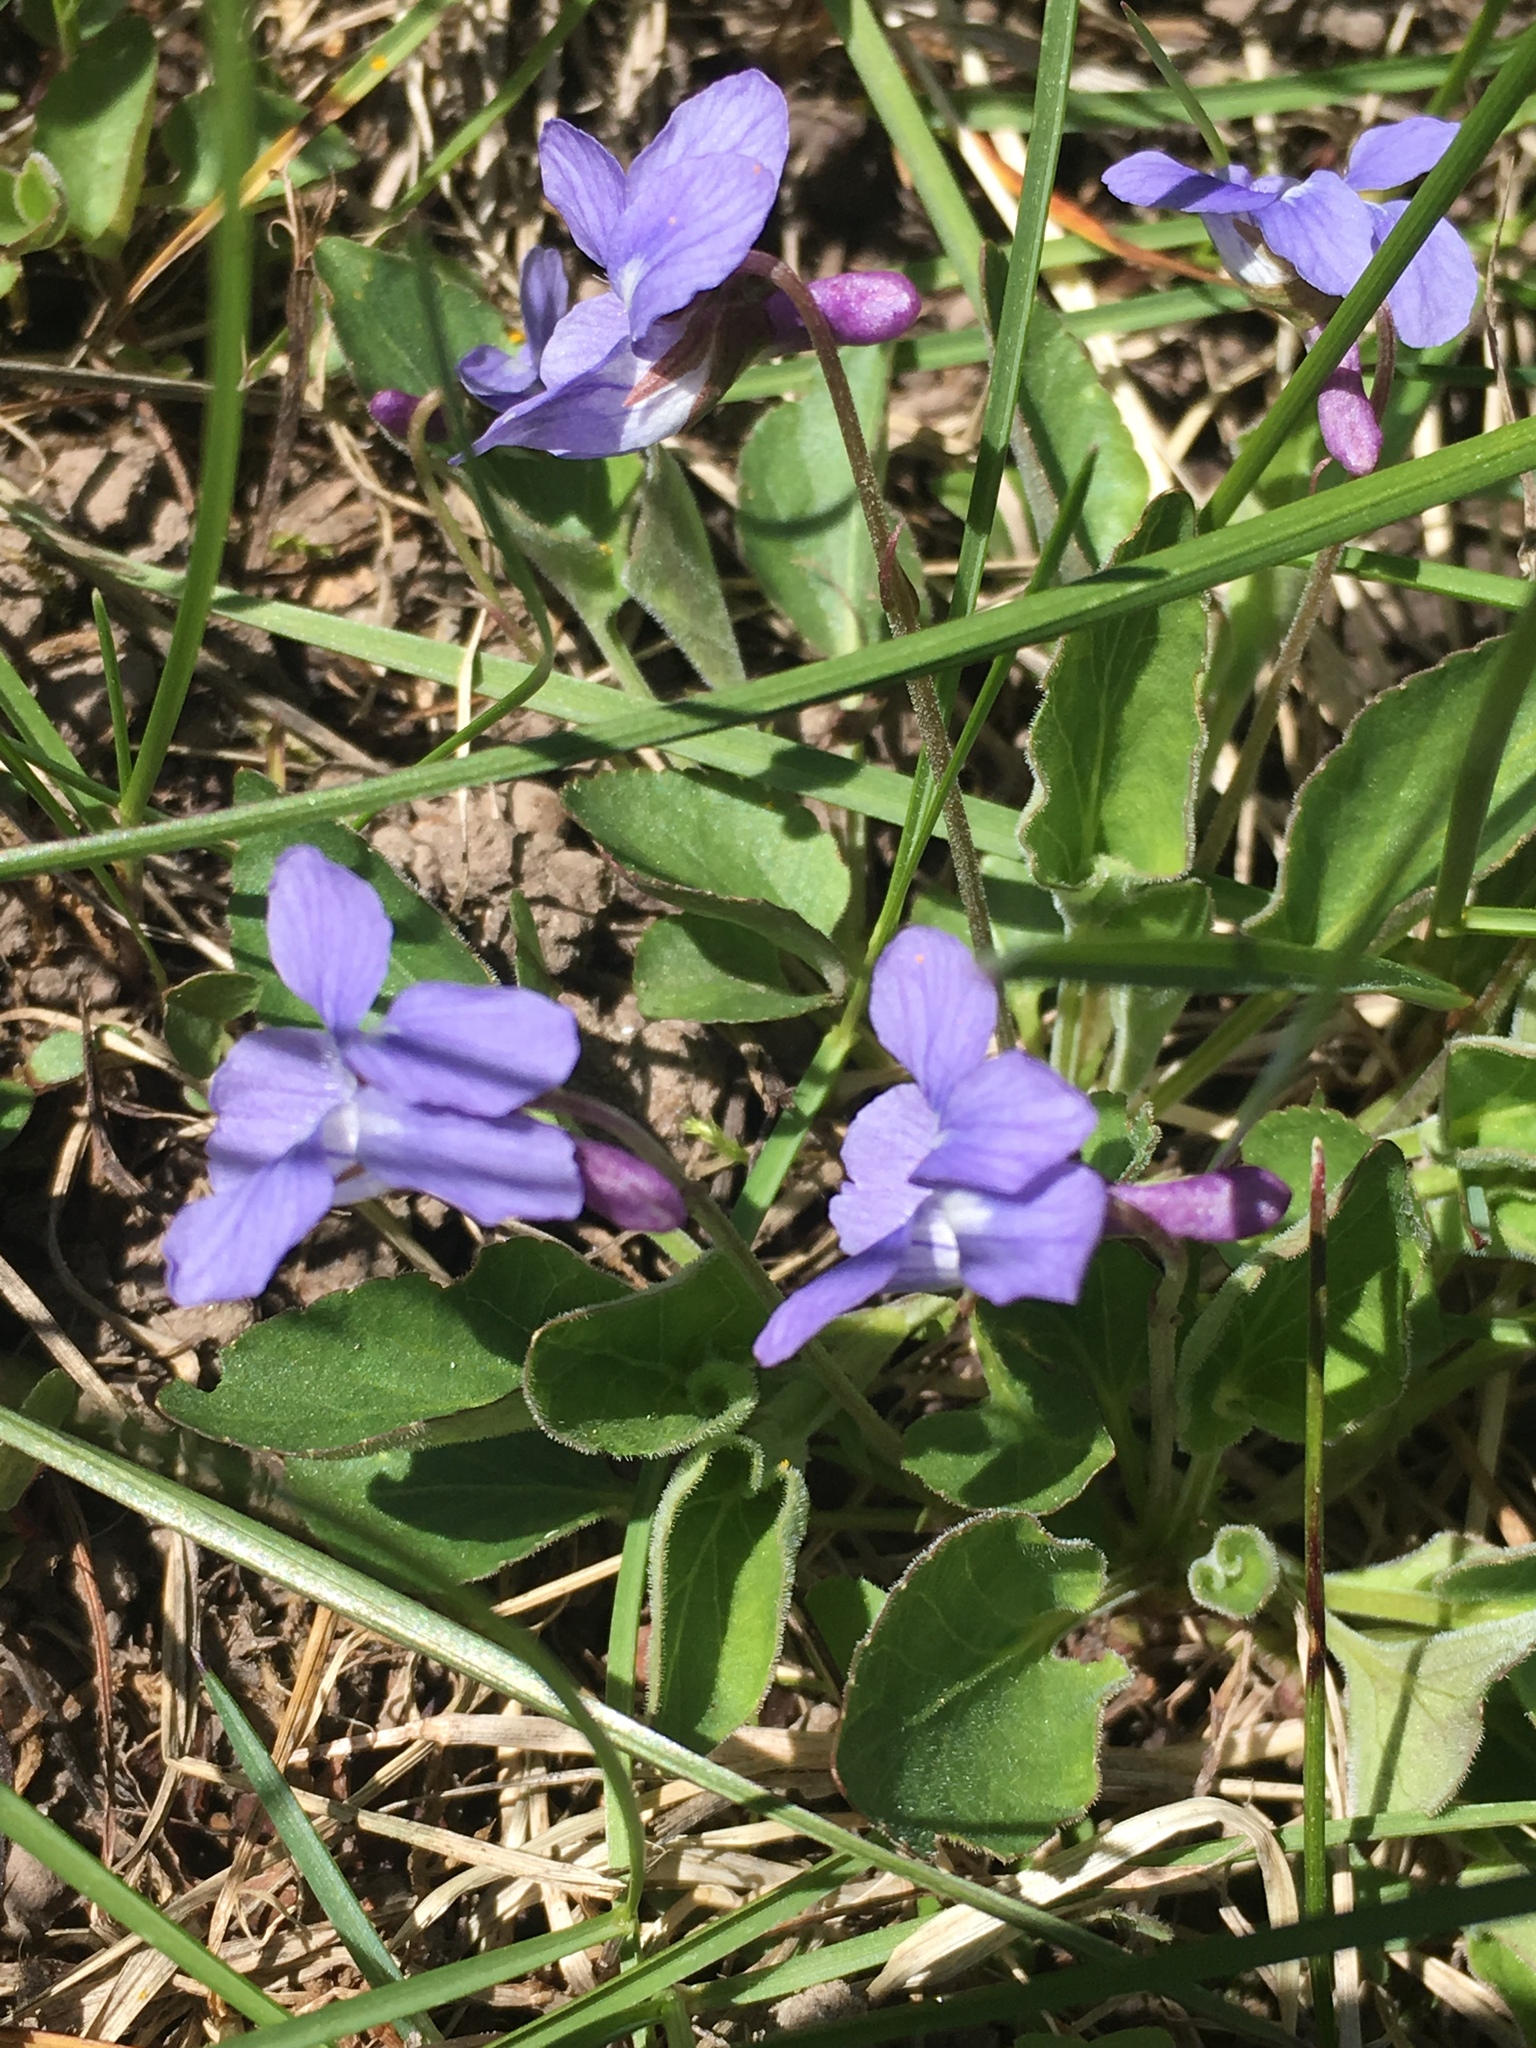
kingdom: Plantae
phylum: Tracheophyta
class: Magnoliopsida
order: Malpighiales
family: Violaceae
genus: Viola
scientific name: Viola adunca
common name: Sand violet
